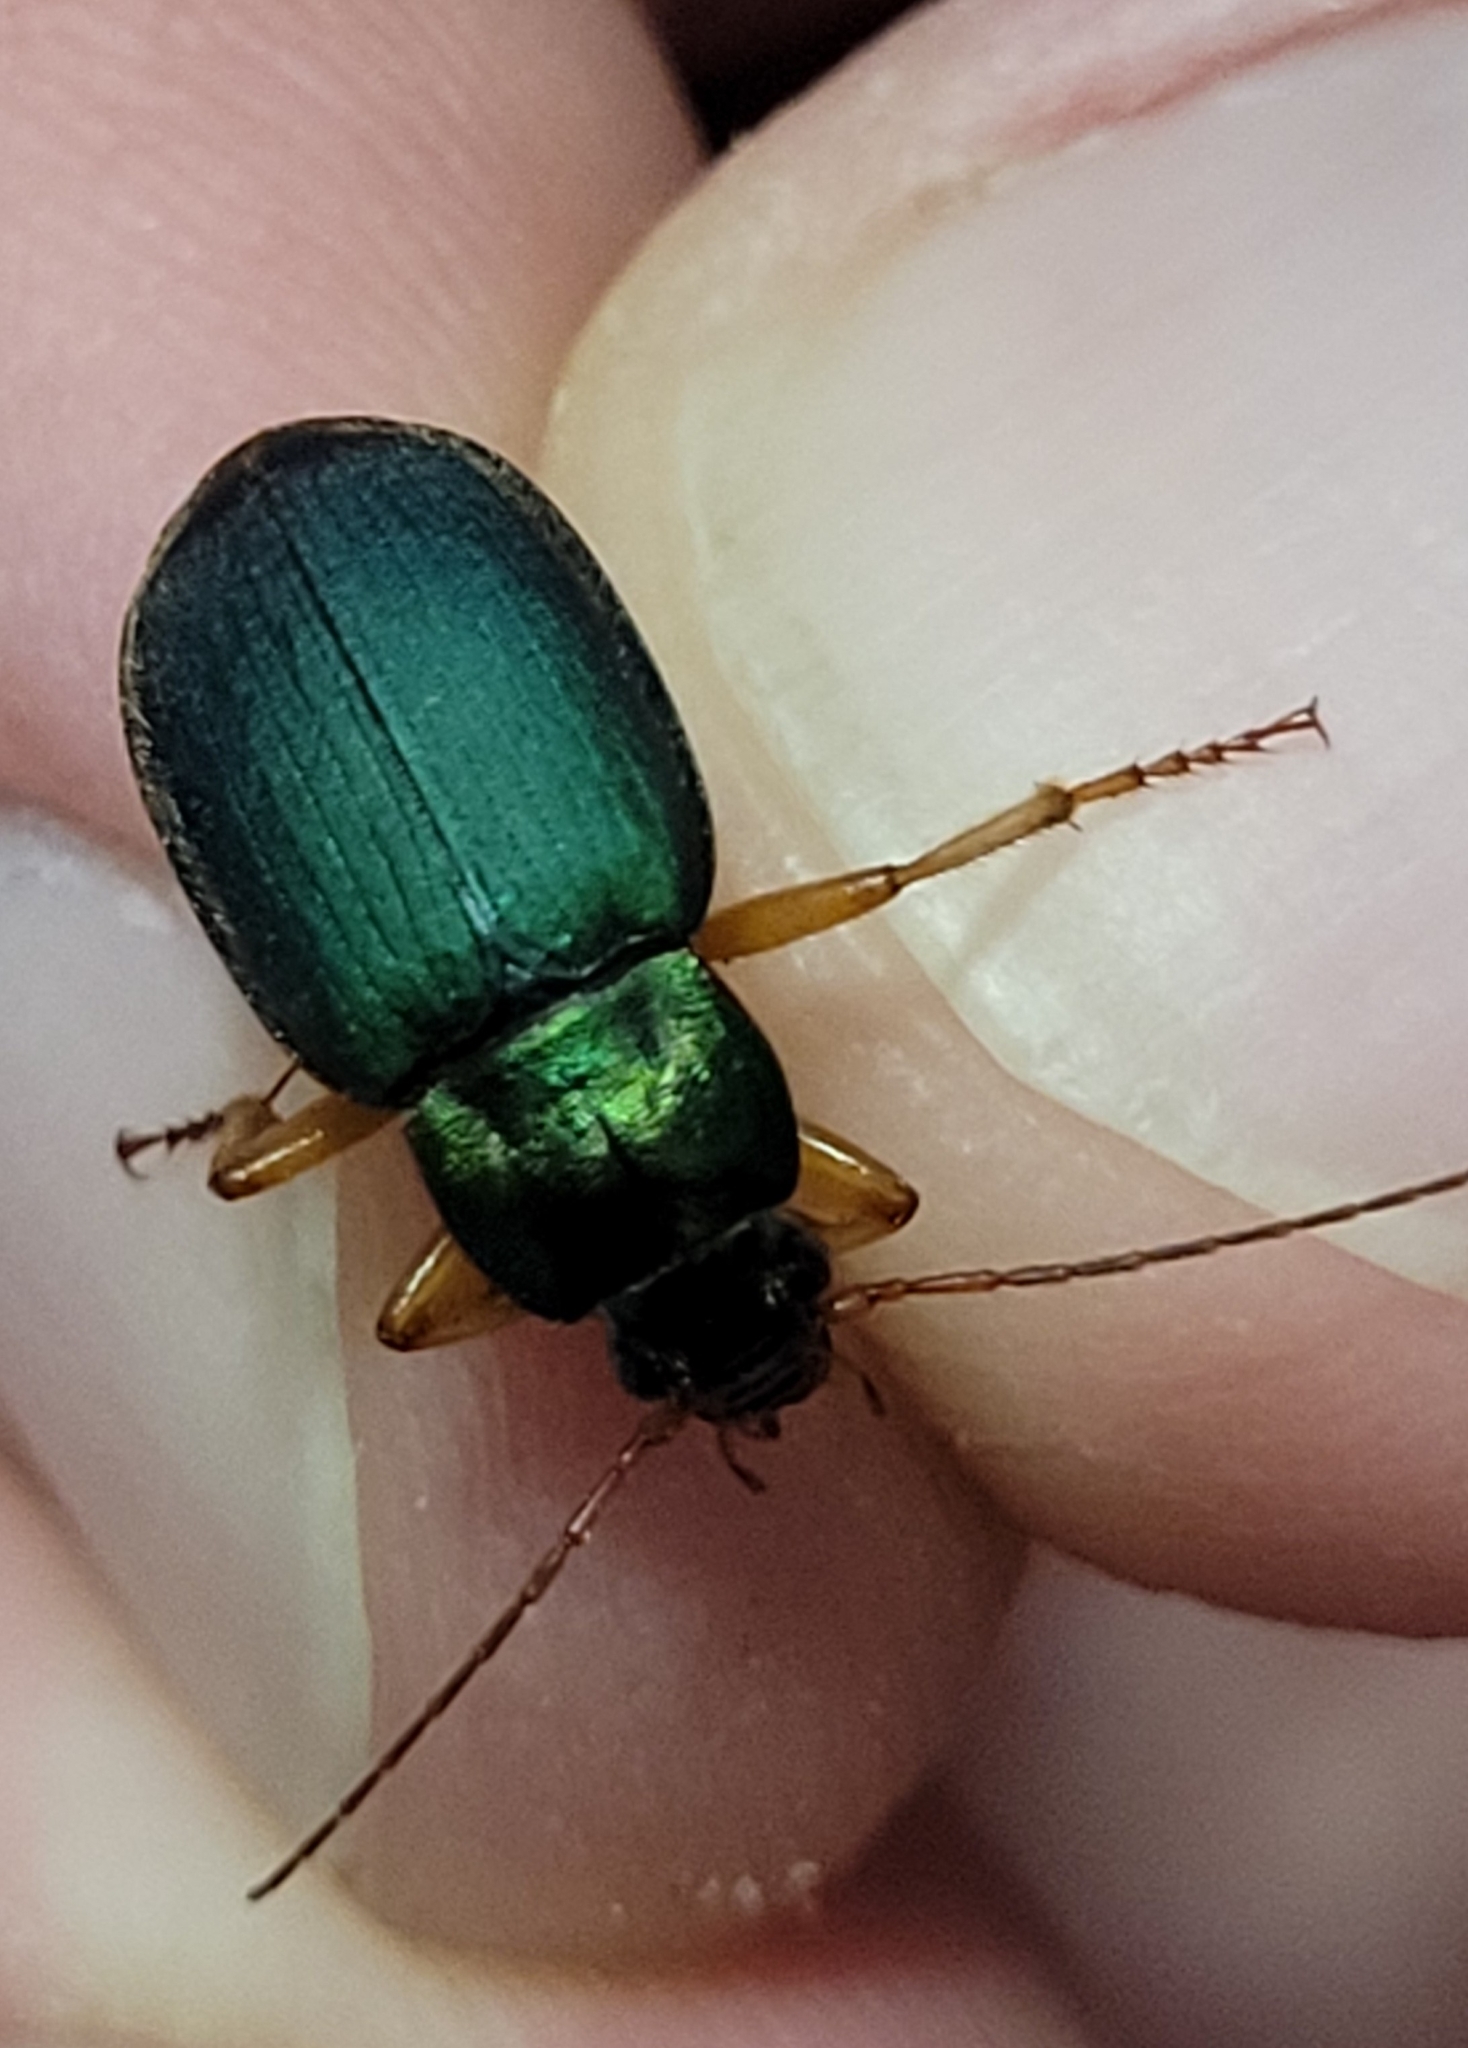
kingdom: Animalia
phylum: Arthropoda
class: Insecta
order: Coleoptera
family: Carabidae
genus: Chlaenius
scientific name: Chlaenius sericeus
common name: Green pubescent ground beetle
